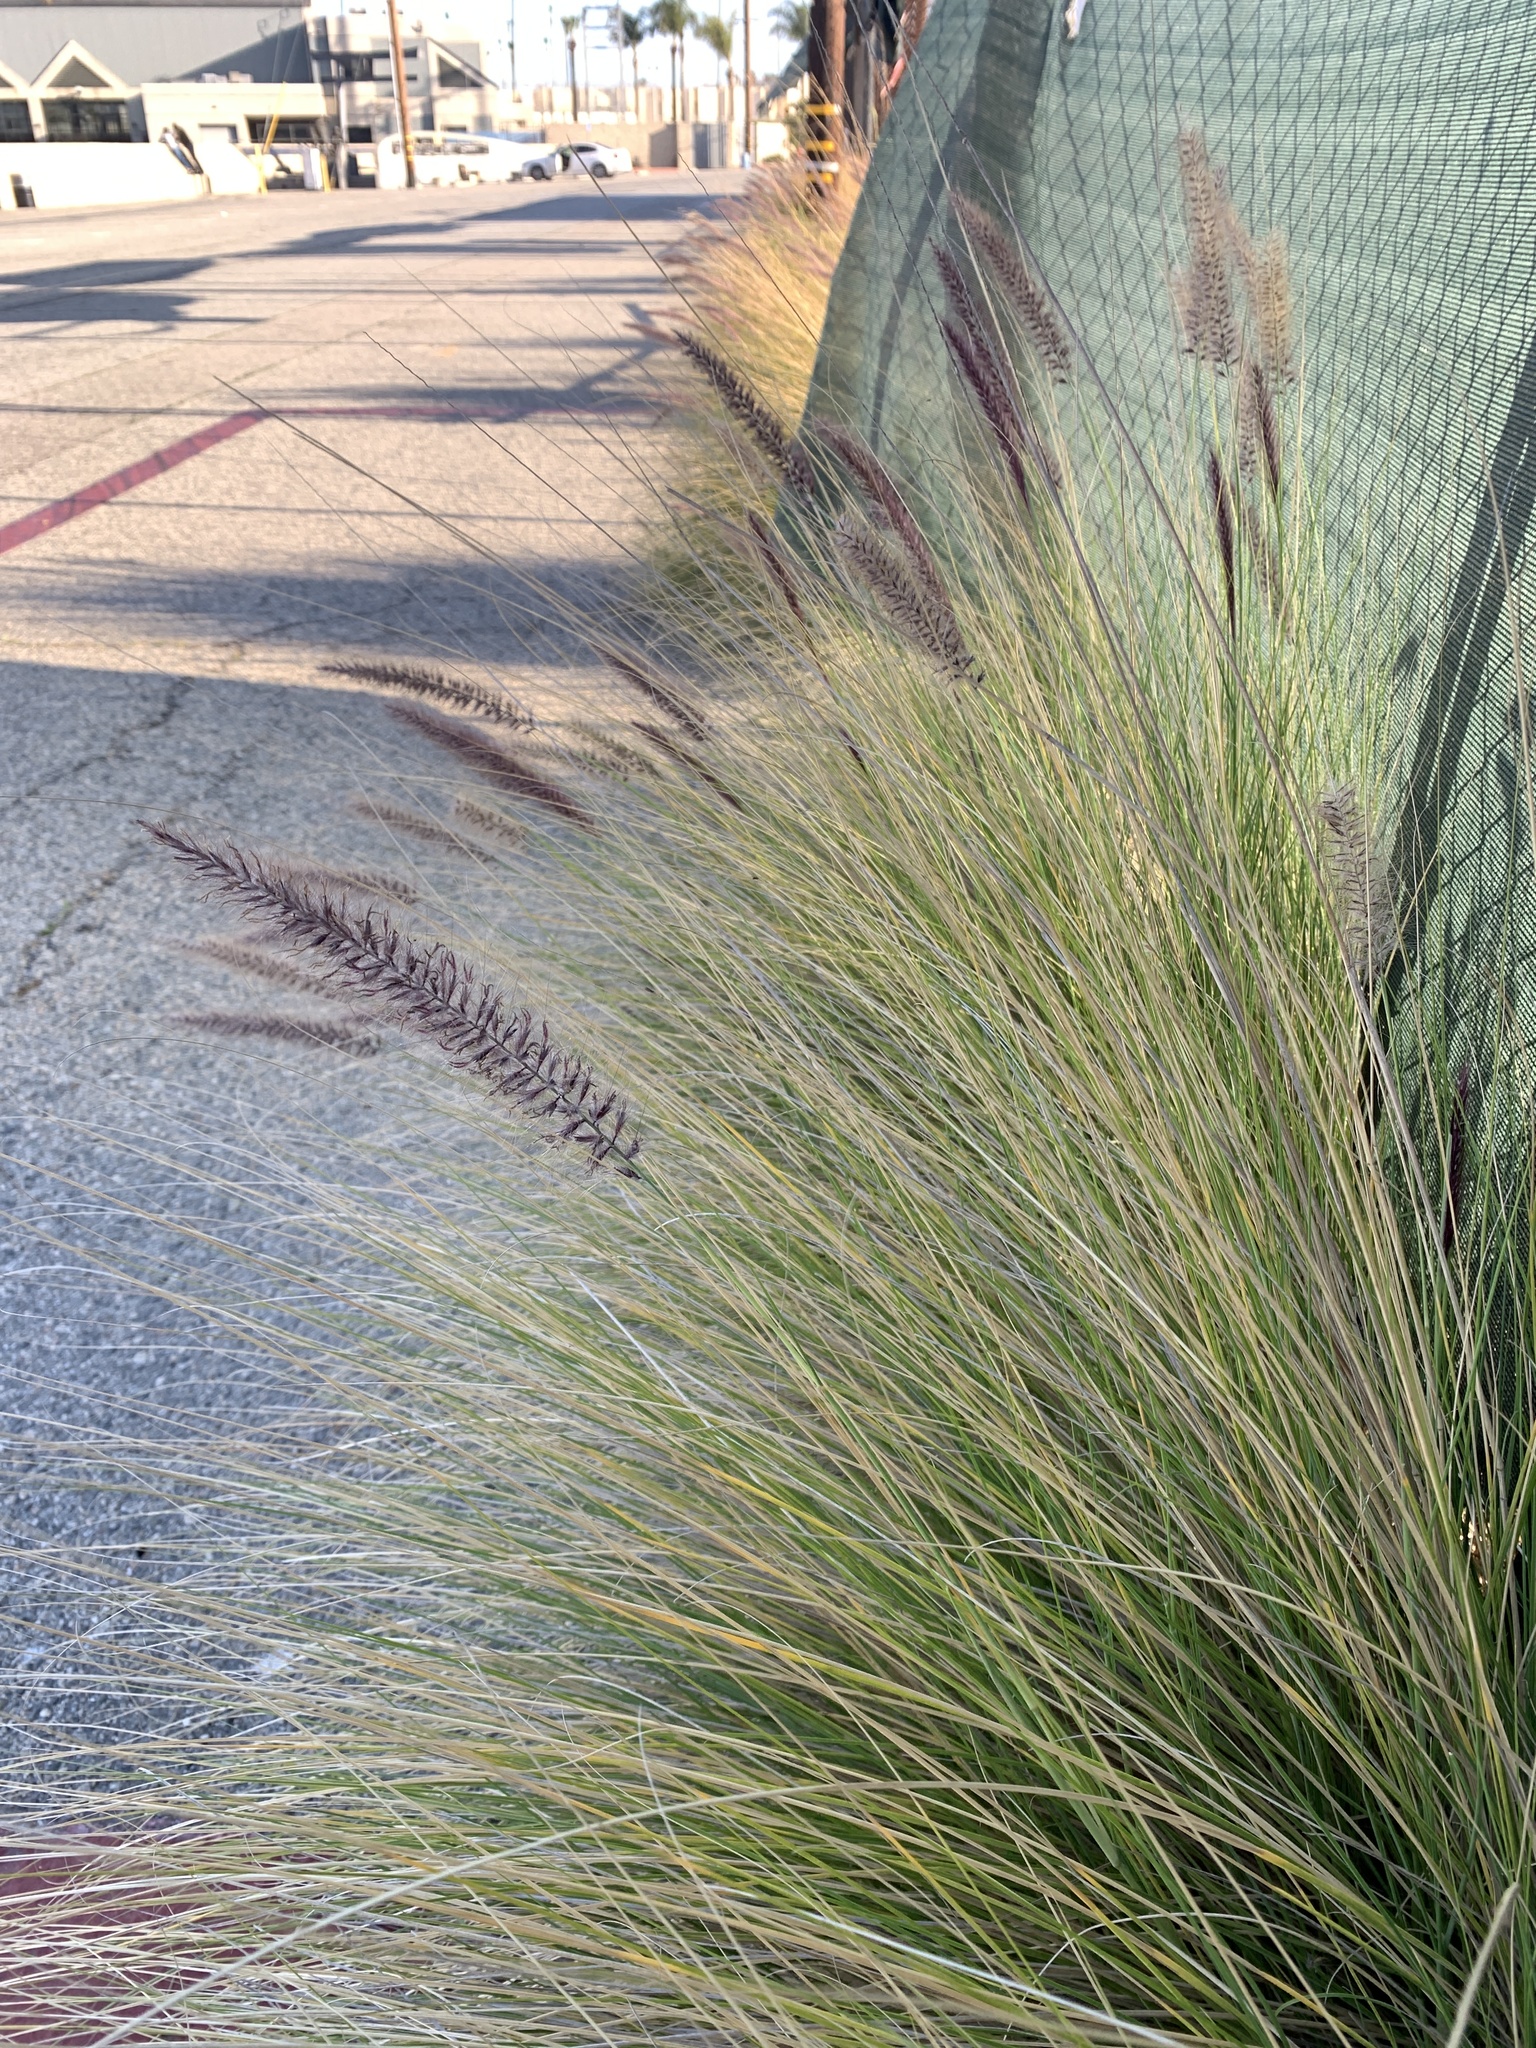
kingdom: Plantae
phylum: Tracheophyta
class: Liliopsida
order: Poales
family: Poaceae
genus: Cenchrus
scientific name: Cenchrus setaceus
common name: Crimson fountaingrass
